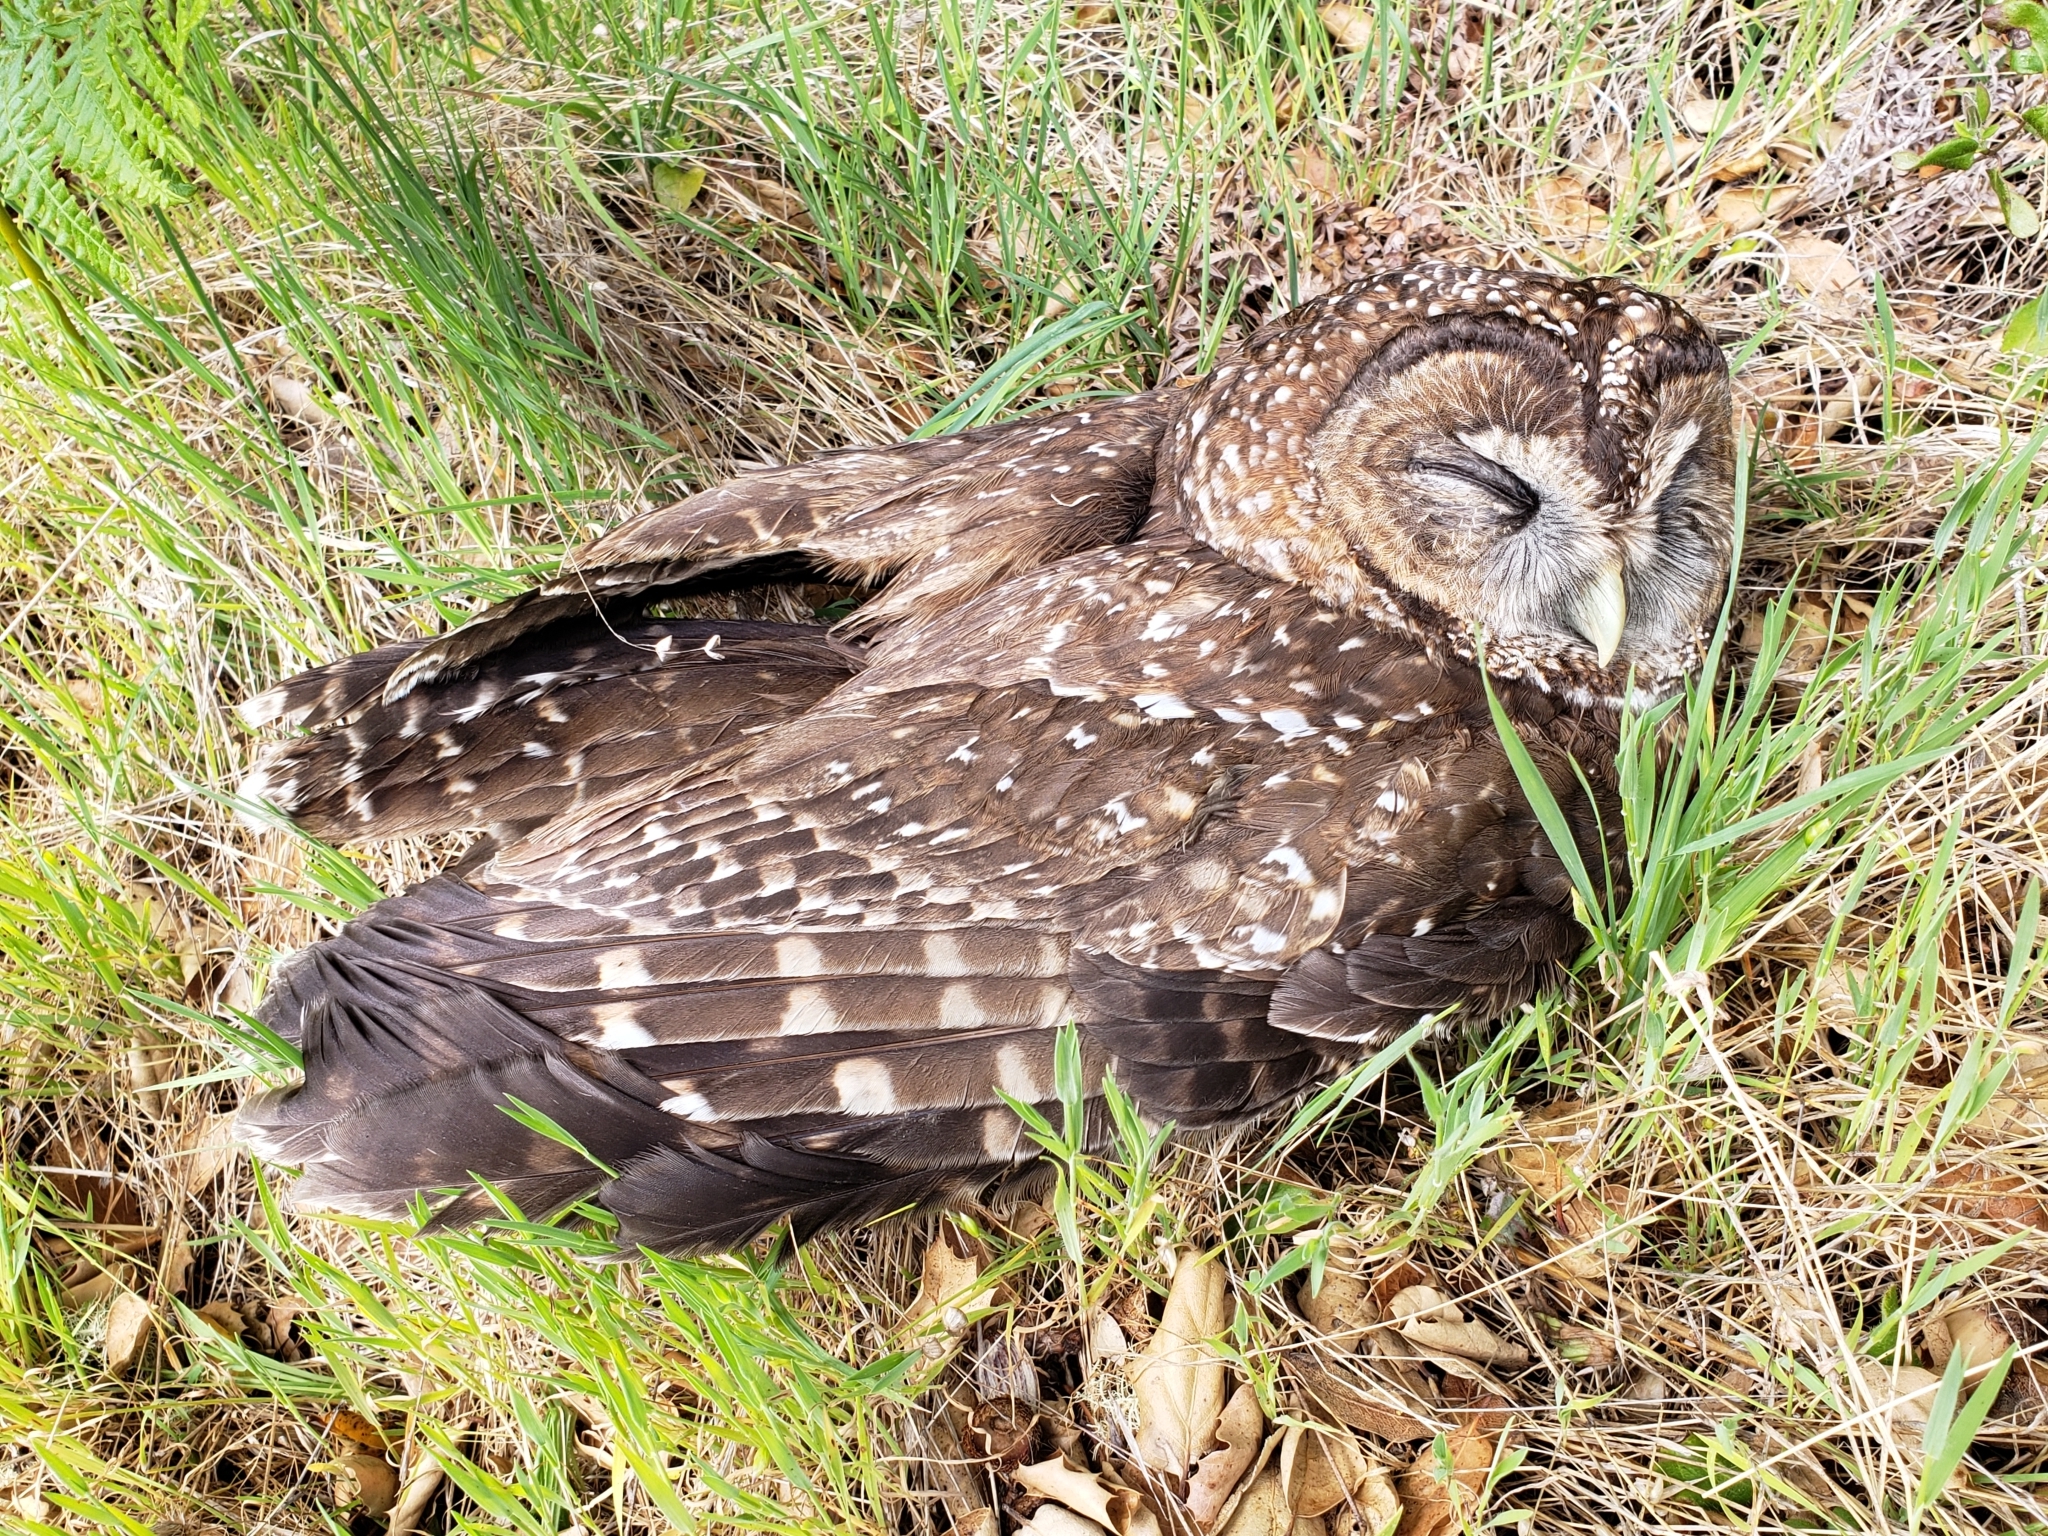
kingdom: Animalia
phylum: Chordata
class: Aves
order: Strigiformes
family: Strigidae
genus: Strix
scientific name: Strix occidentalis
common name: Spotted owl
